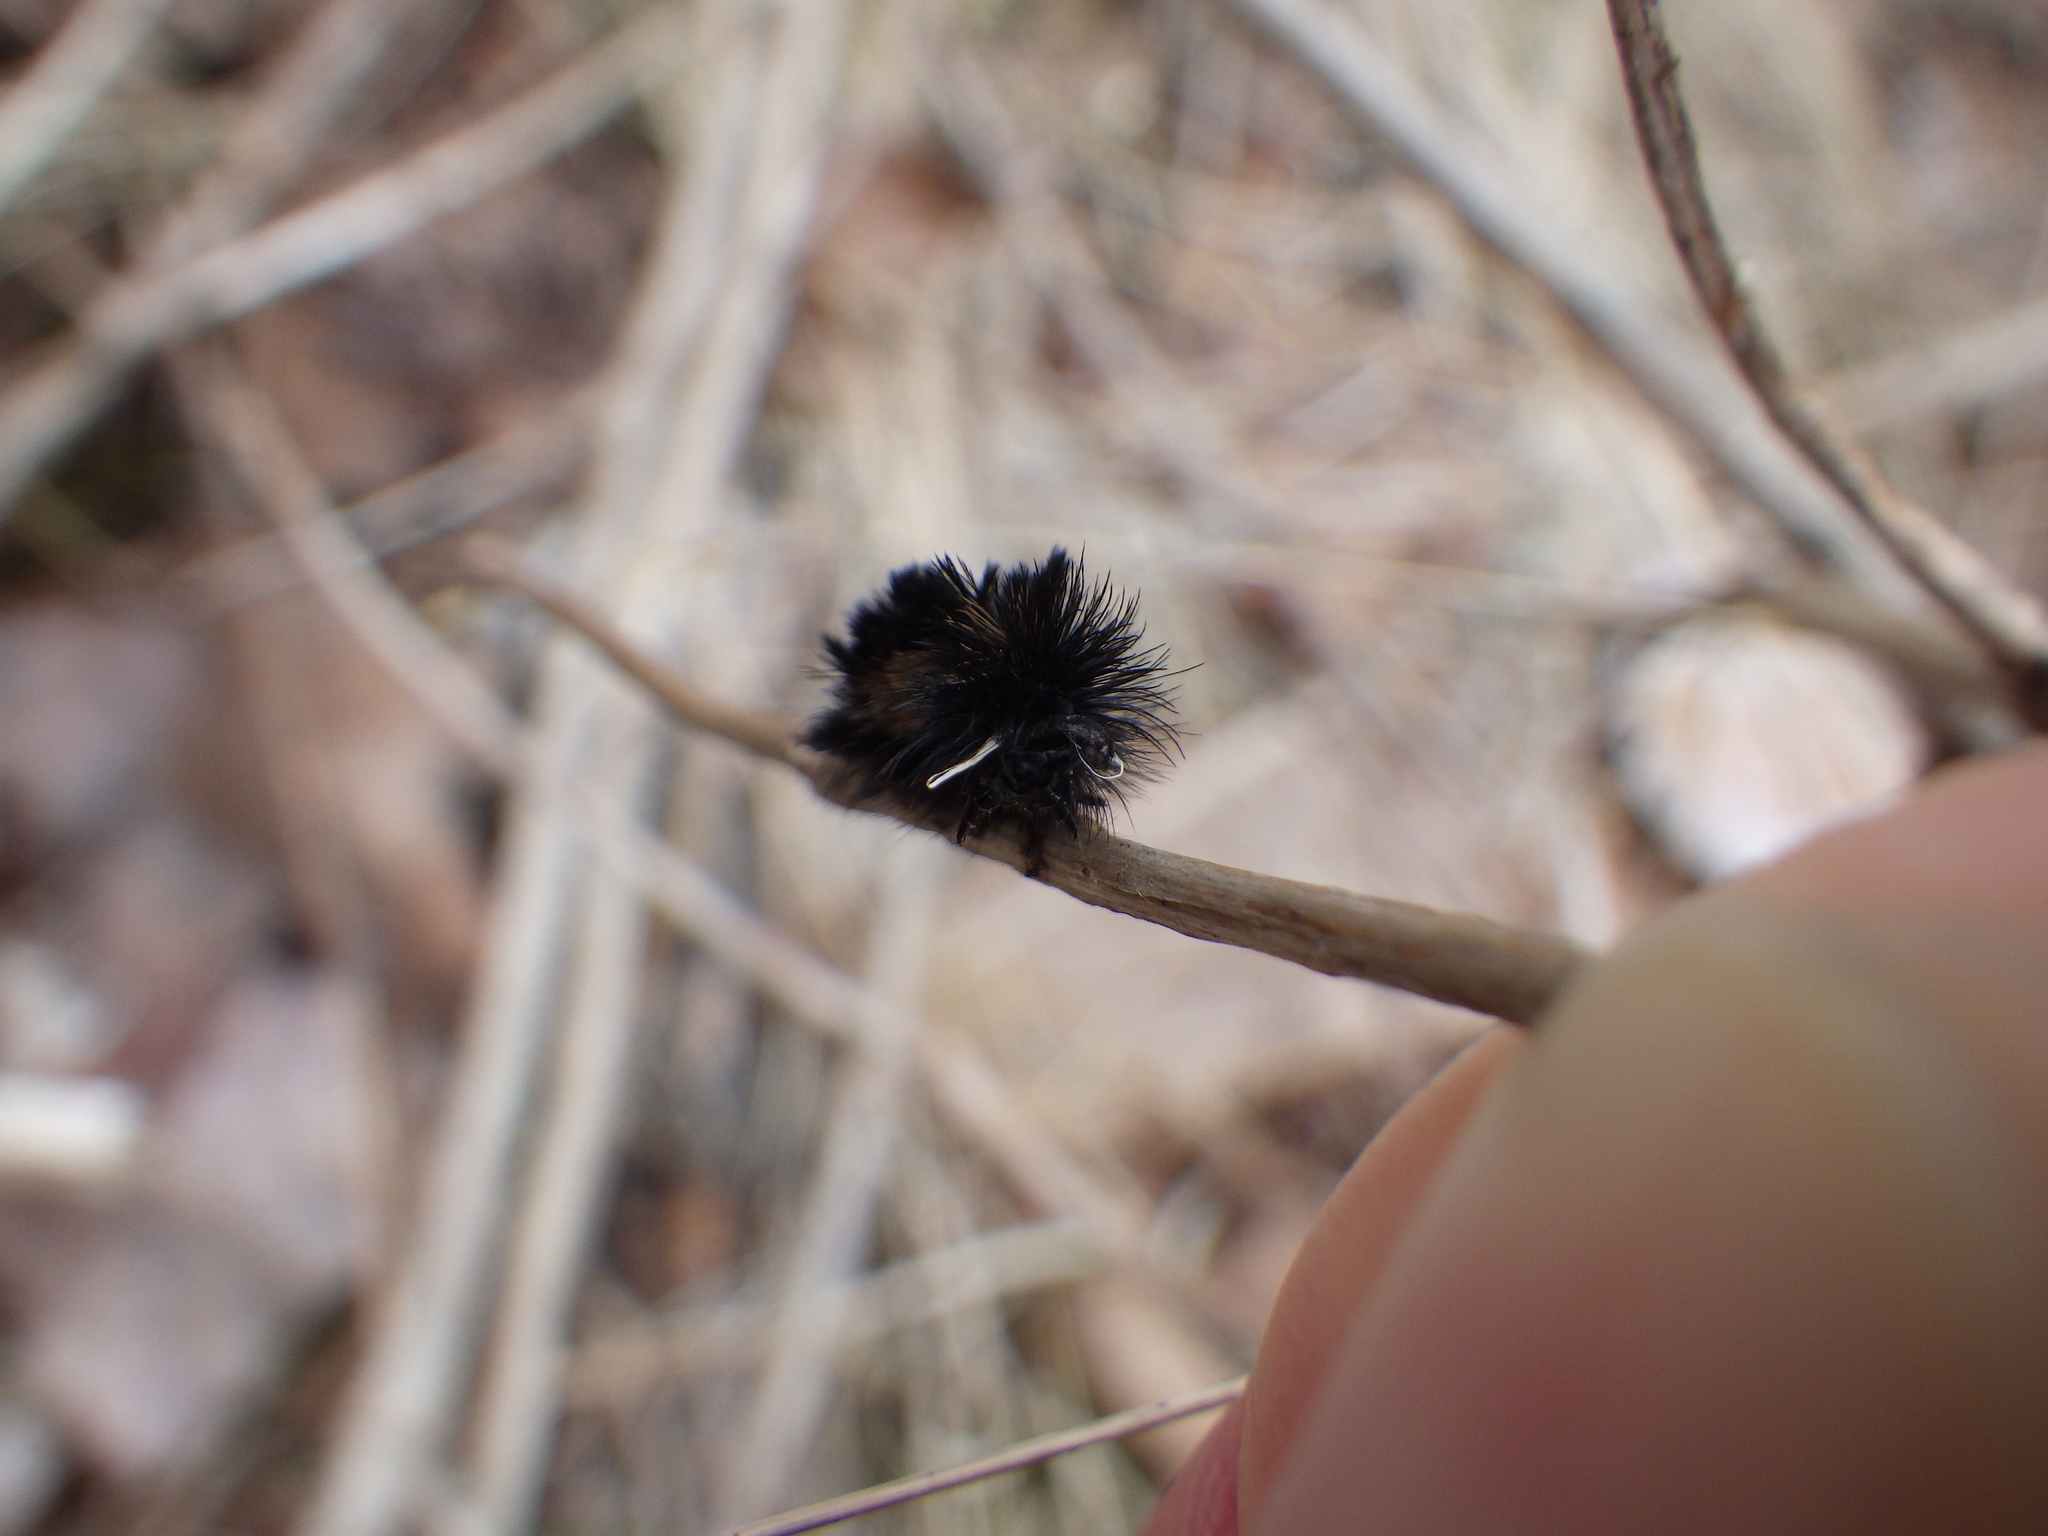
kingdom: Animalia
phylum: Arthropoda
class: Insecta
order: Lepidoptera
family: Erebidae
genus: Ctenucha
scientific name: Ctenucha virginica
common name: Virginia ctenucha moth
